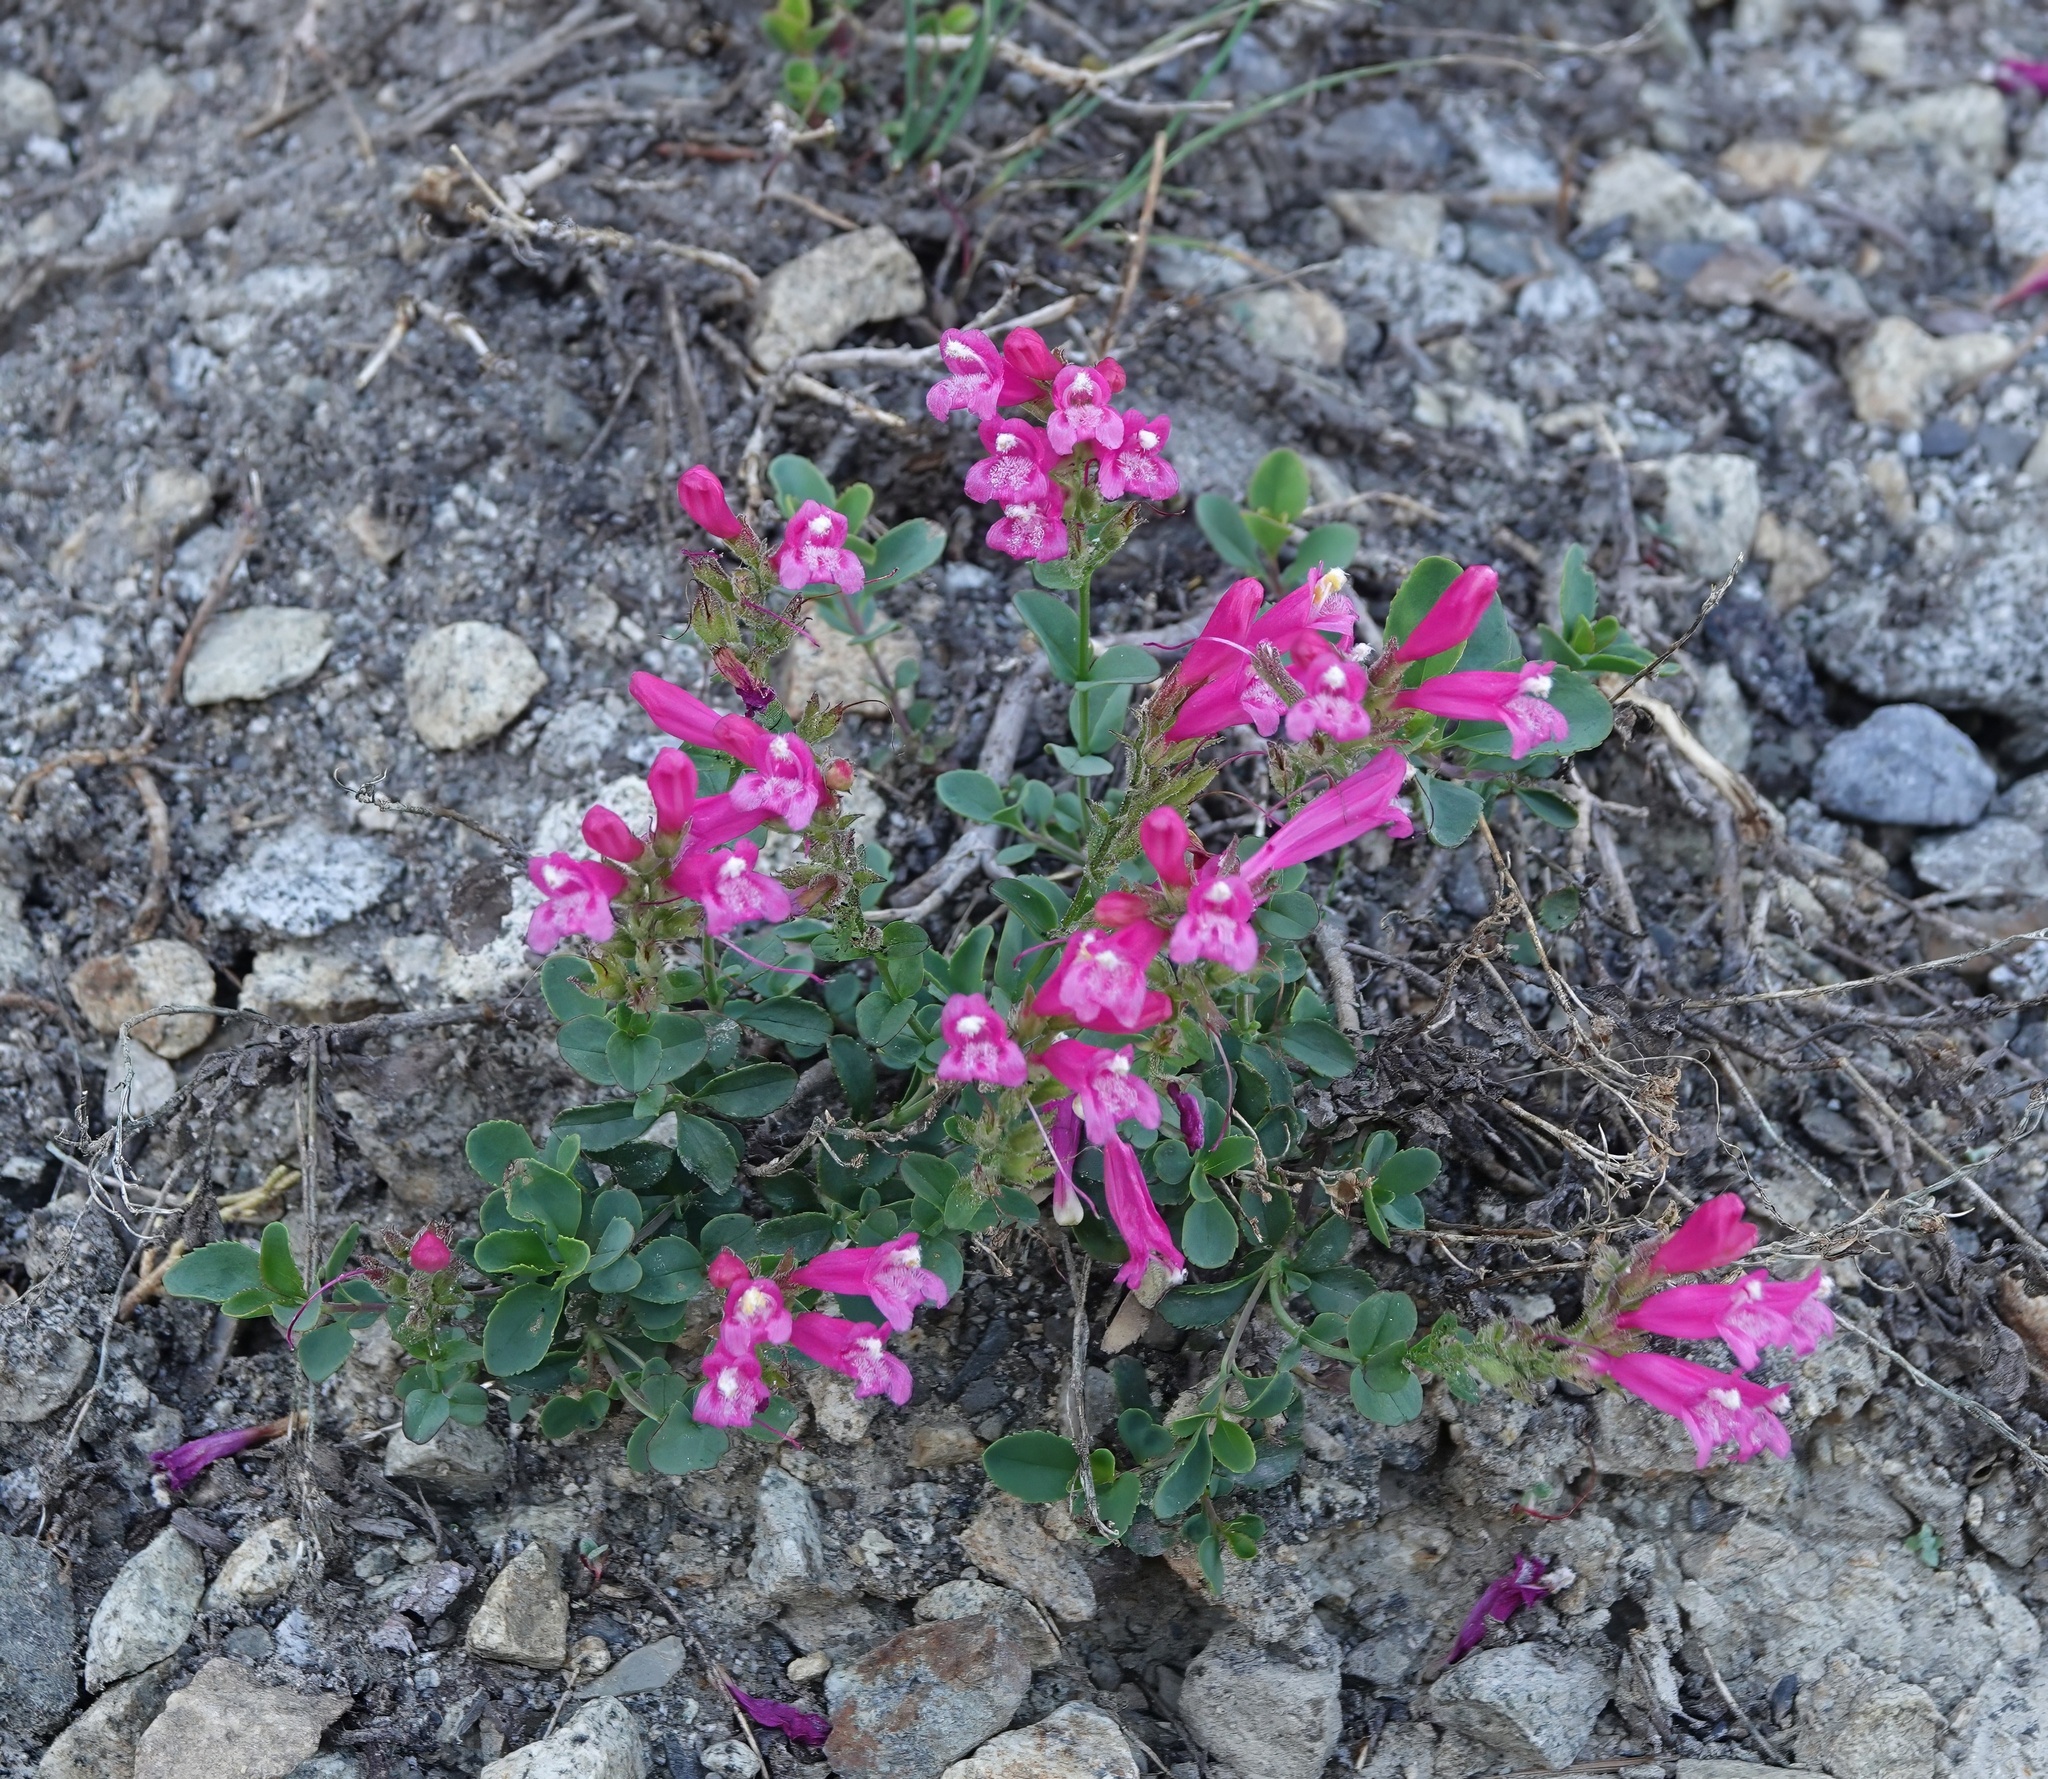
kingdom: Plantae
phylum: Tracheophyta
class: Magnoliopsida
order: Lamiales
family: Plantaginaceae
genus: Penstemon
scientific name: Penstemon newberryi
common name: Mountain-pride
